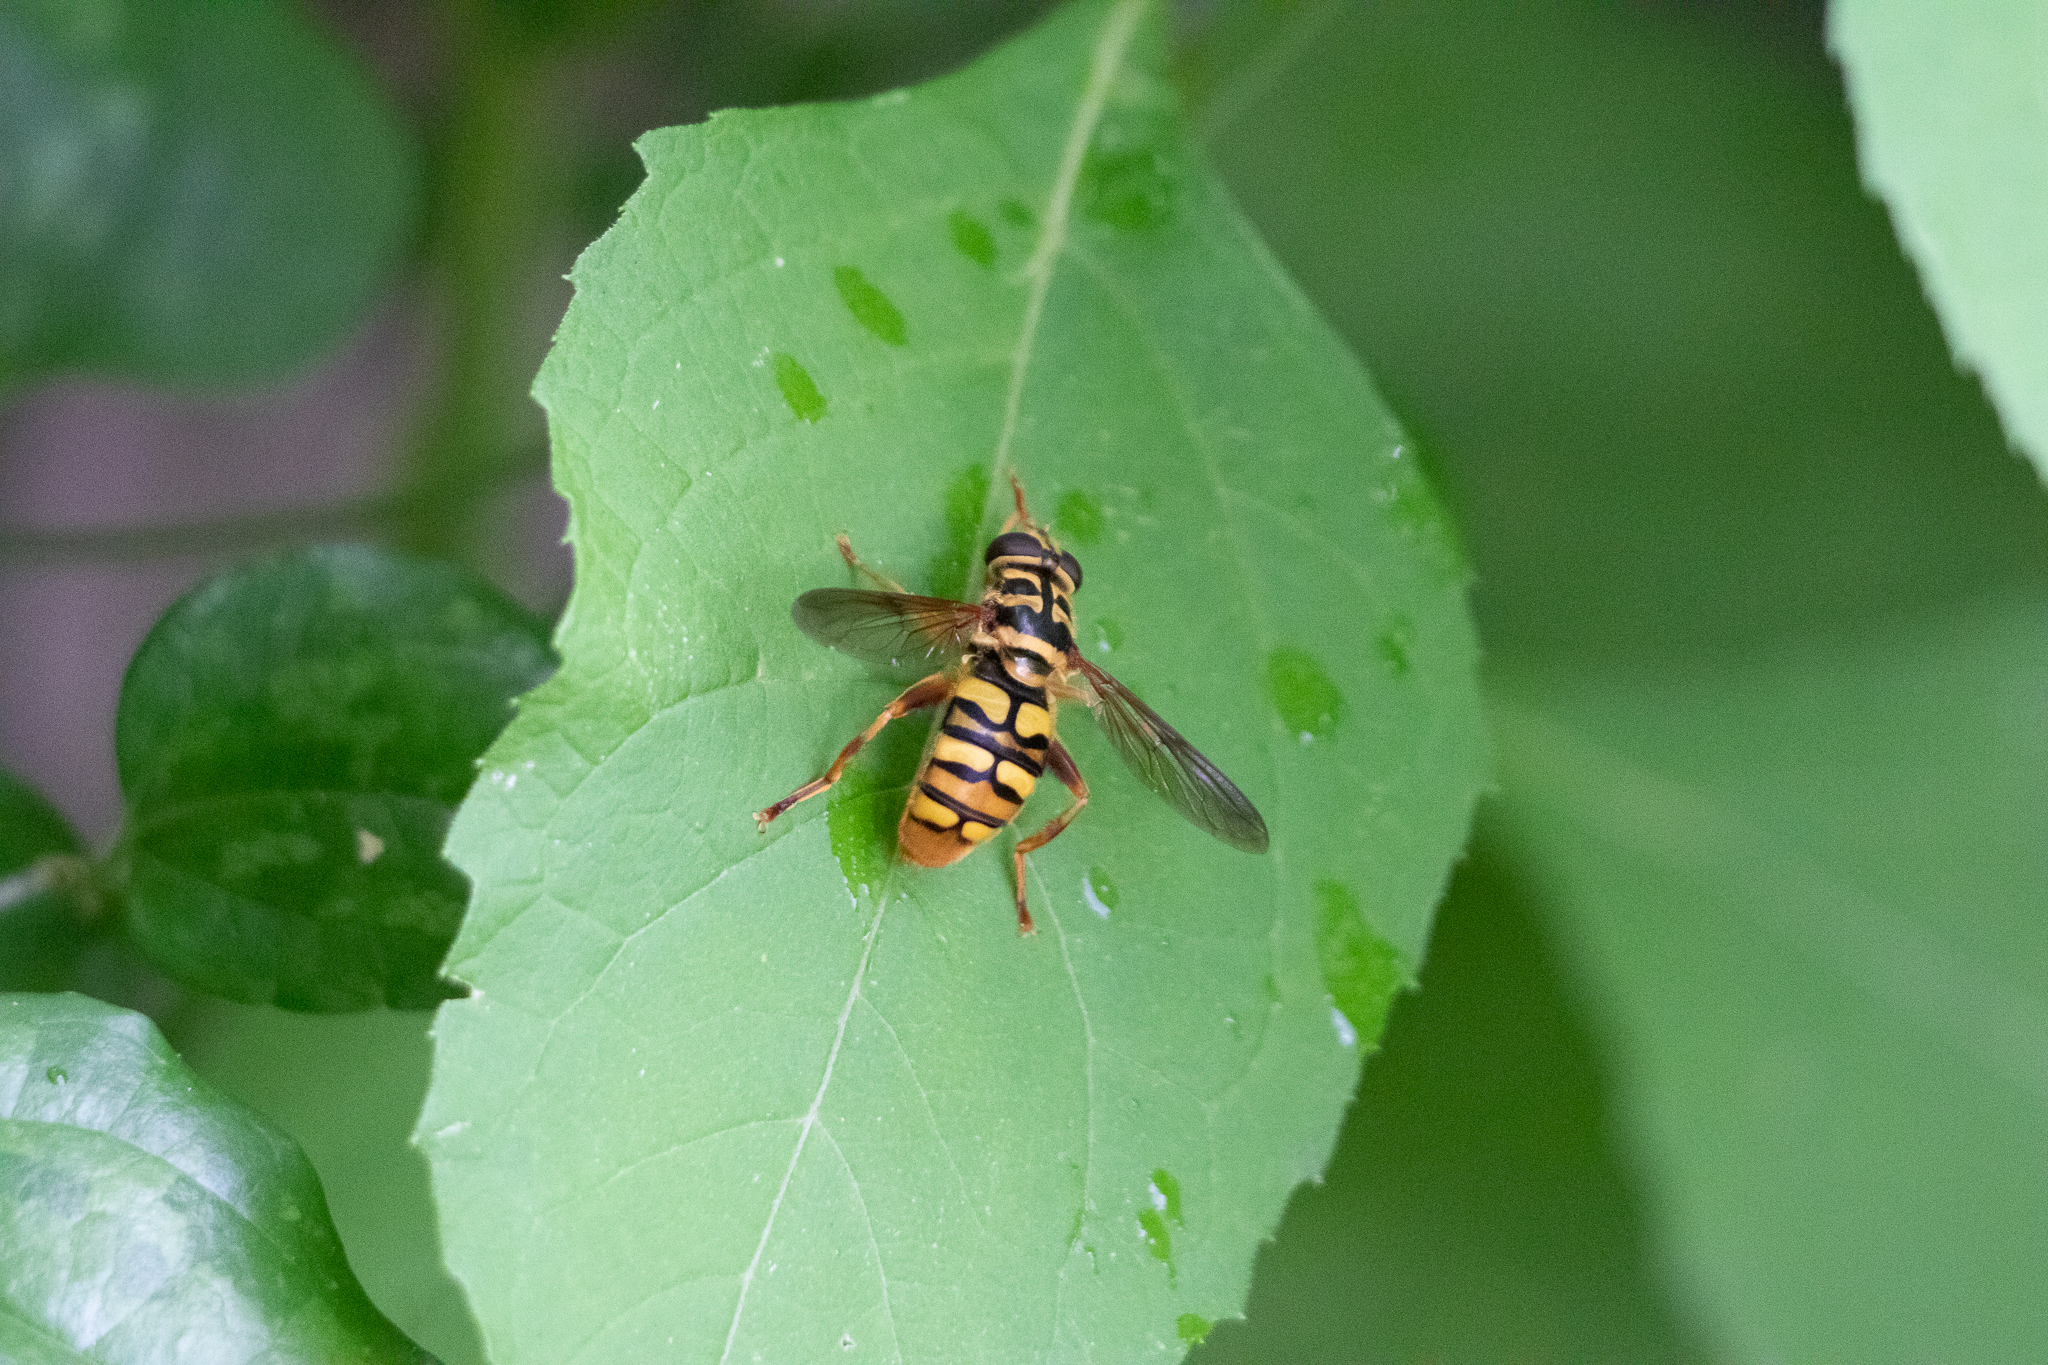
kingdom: Animalia
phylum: Arthropoda
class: Insecta
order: Diptera
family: Syrphidae
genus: Milesia
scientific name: Milesia virginiensis
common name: Virginia giant
